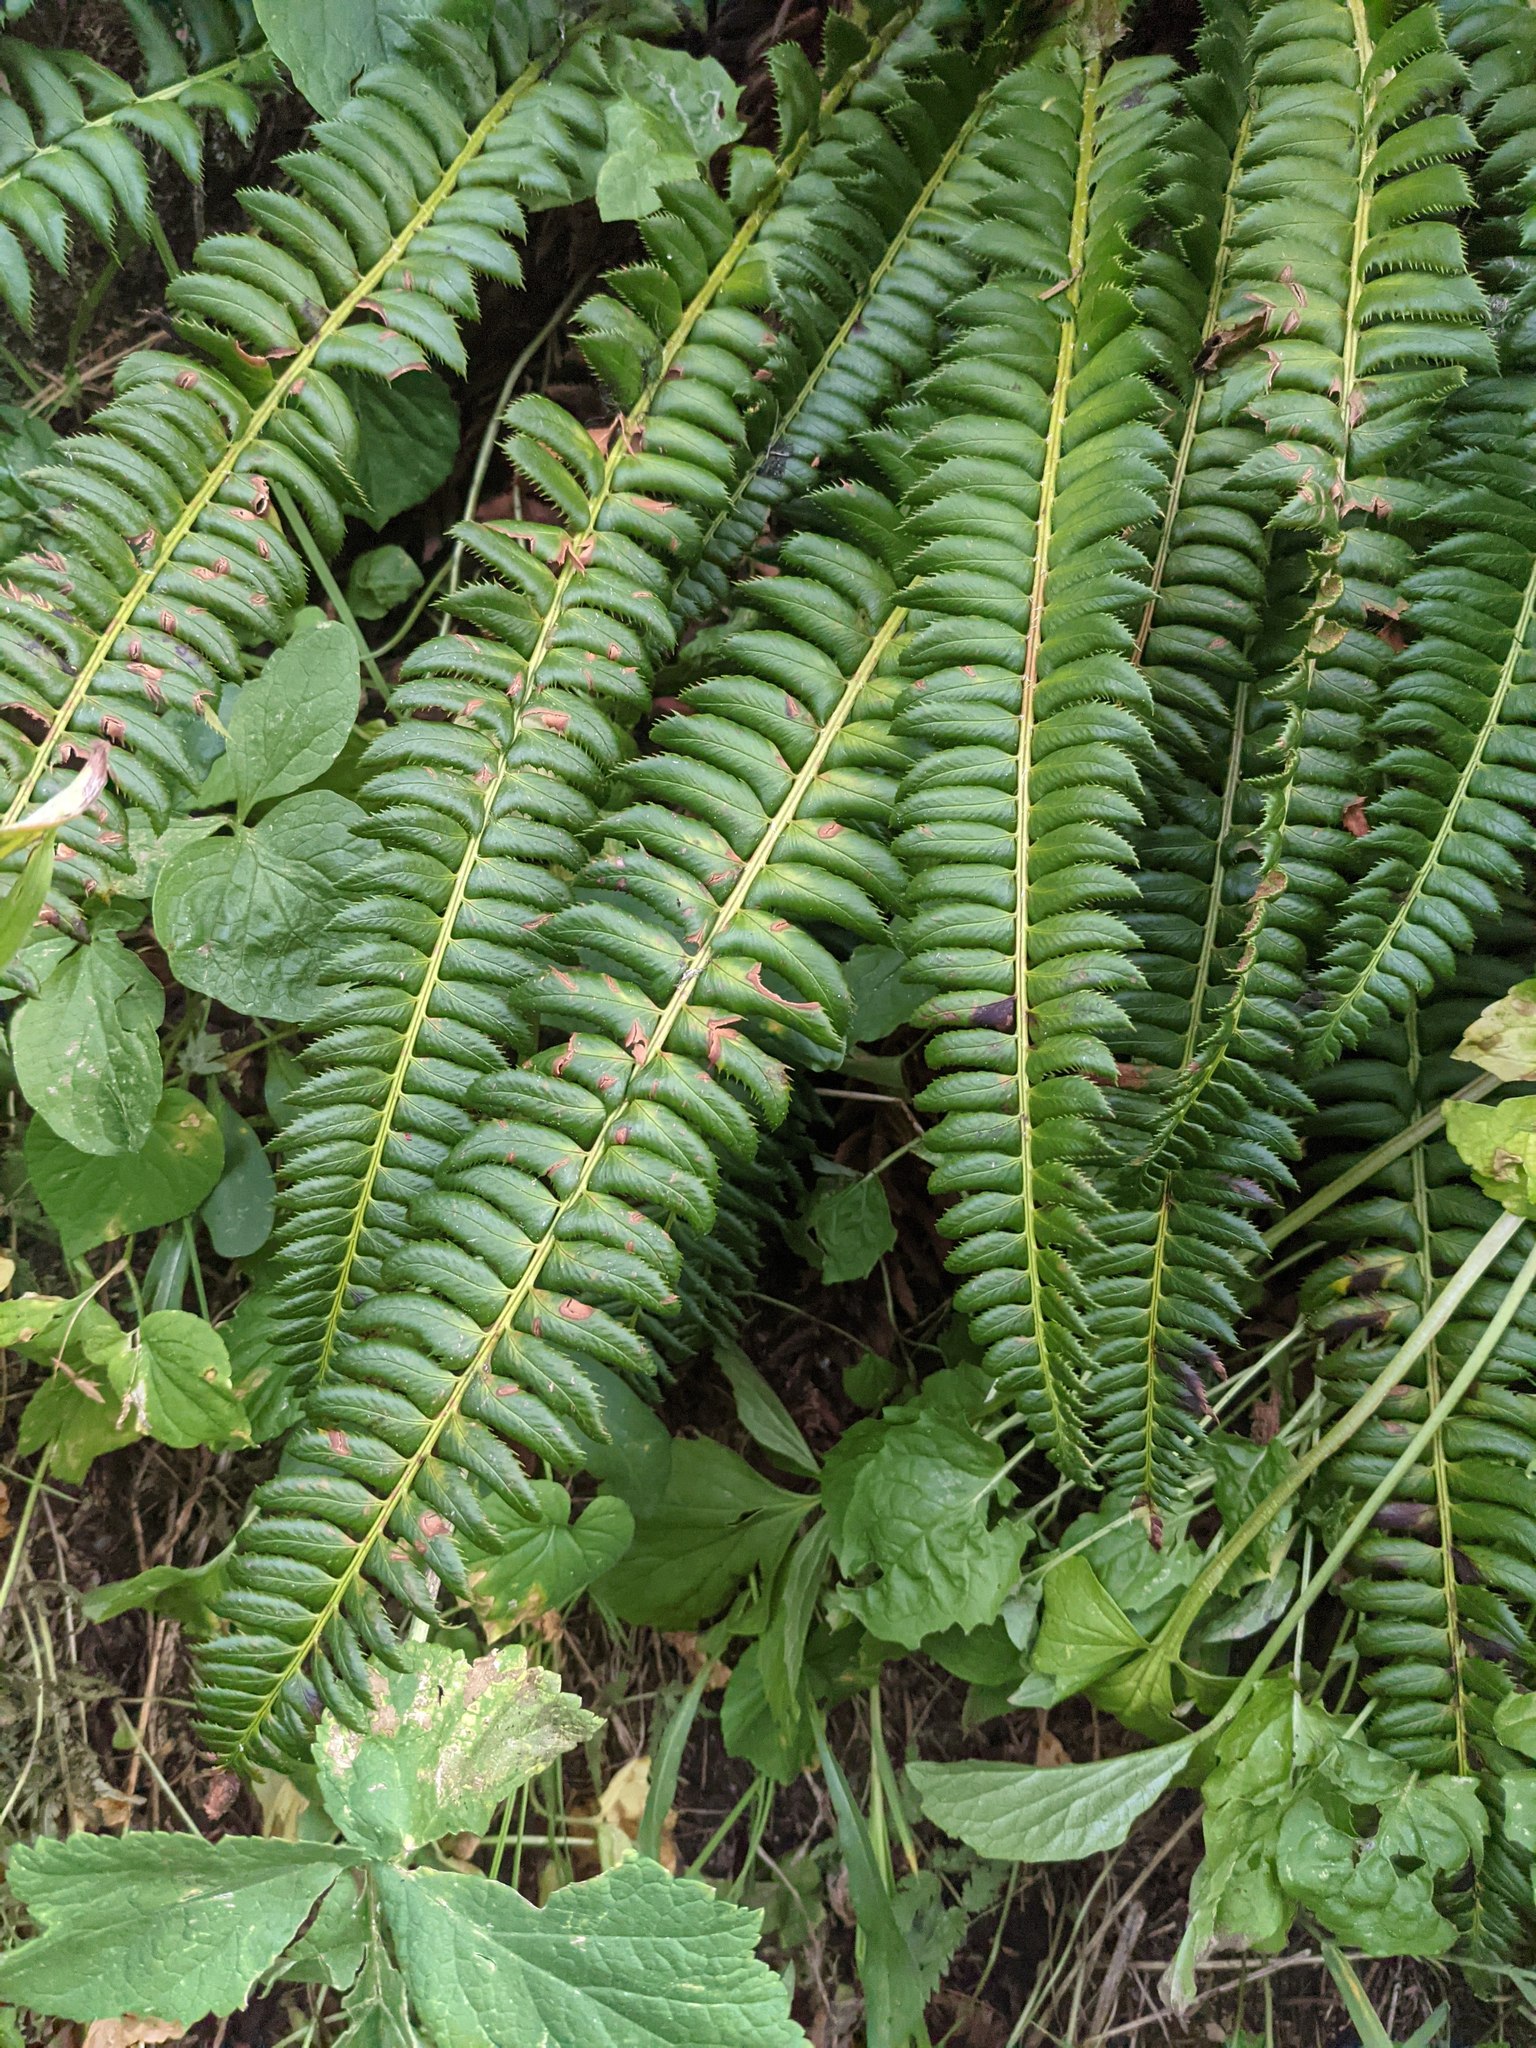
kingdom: Plantae
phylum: Tracheophyta
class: Polypodiopsida
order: Polypodiales
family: Dryopteridaceae
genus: Polystichum
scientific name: Polystichum lonchitis
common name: Holly fern
